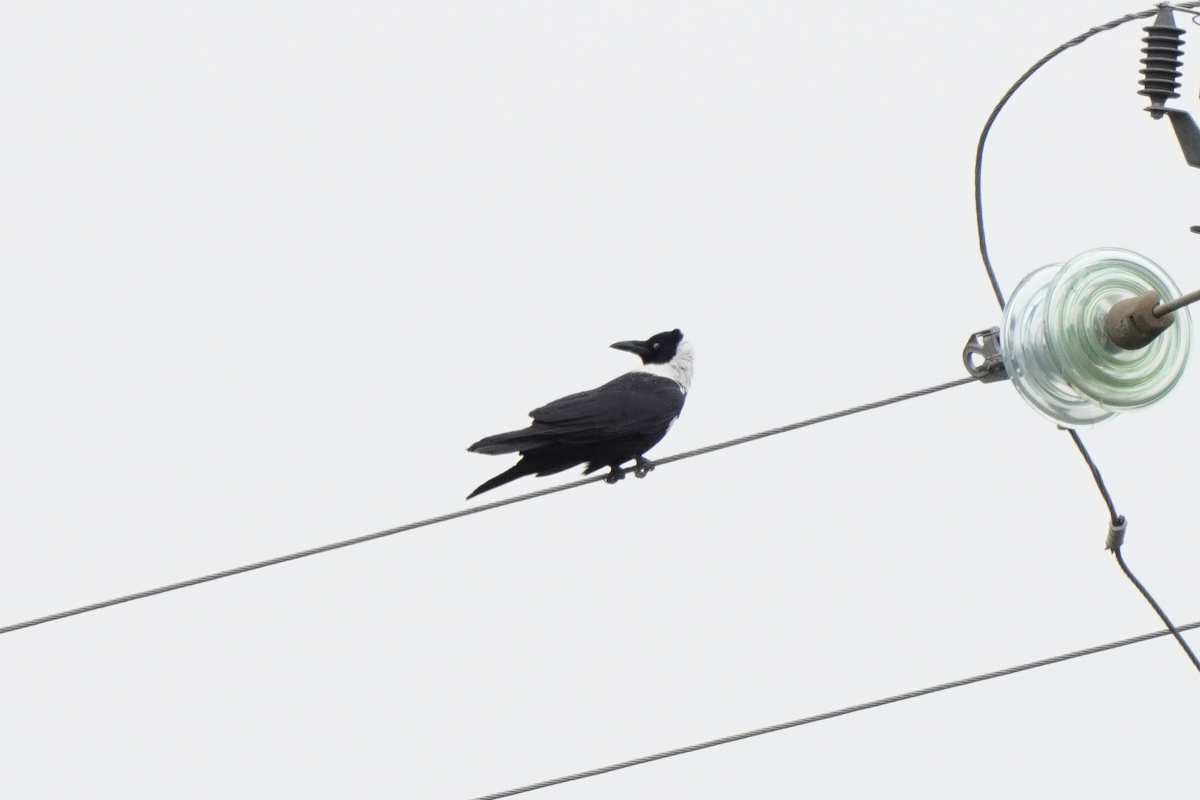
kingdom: Animalia
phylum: Chordata
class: Aves
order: Passeriformes
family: Corvidae
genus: Corvus
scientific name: Corvus pectoralis
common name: Collared crow
